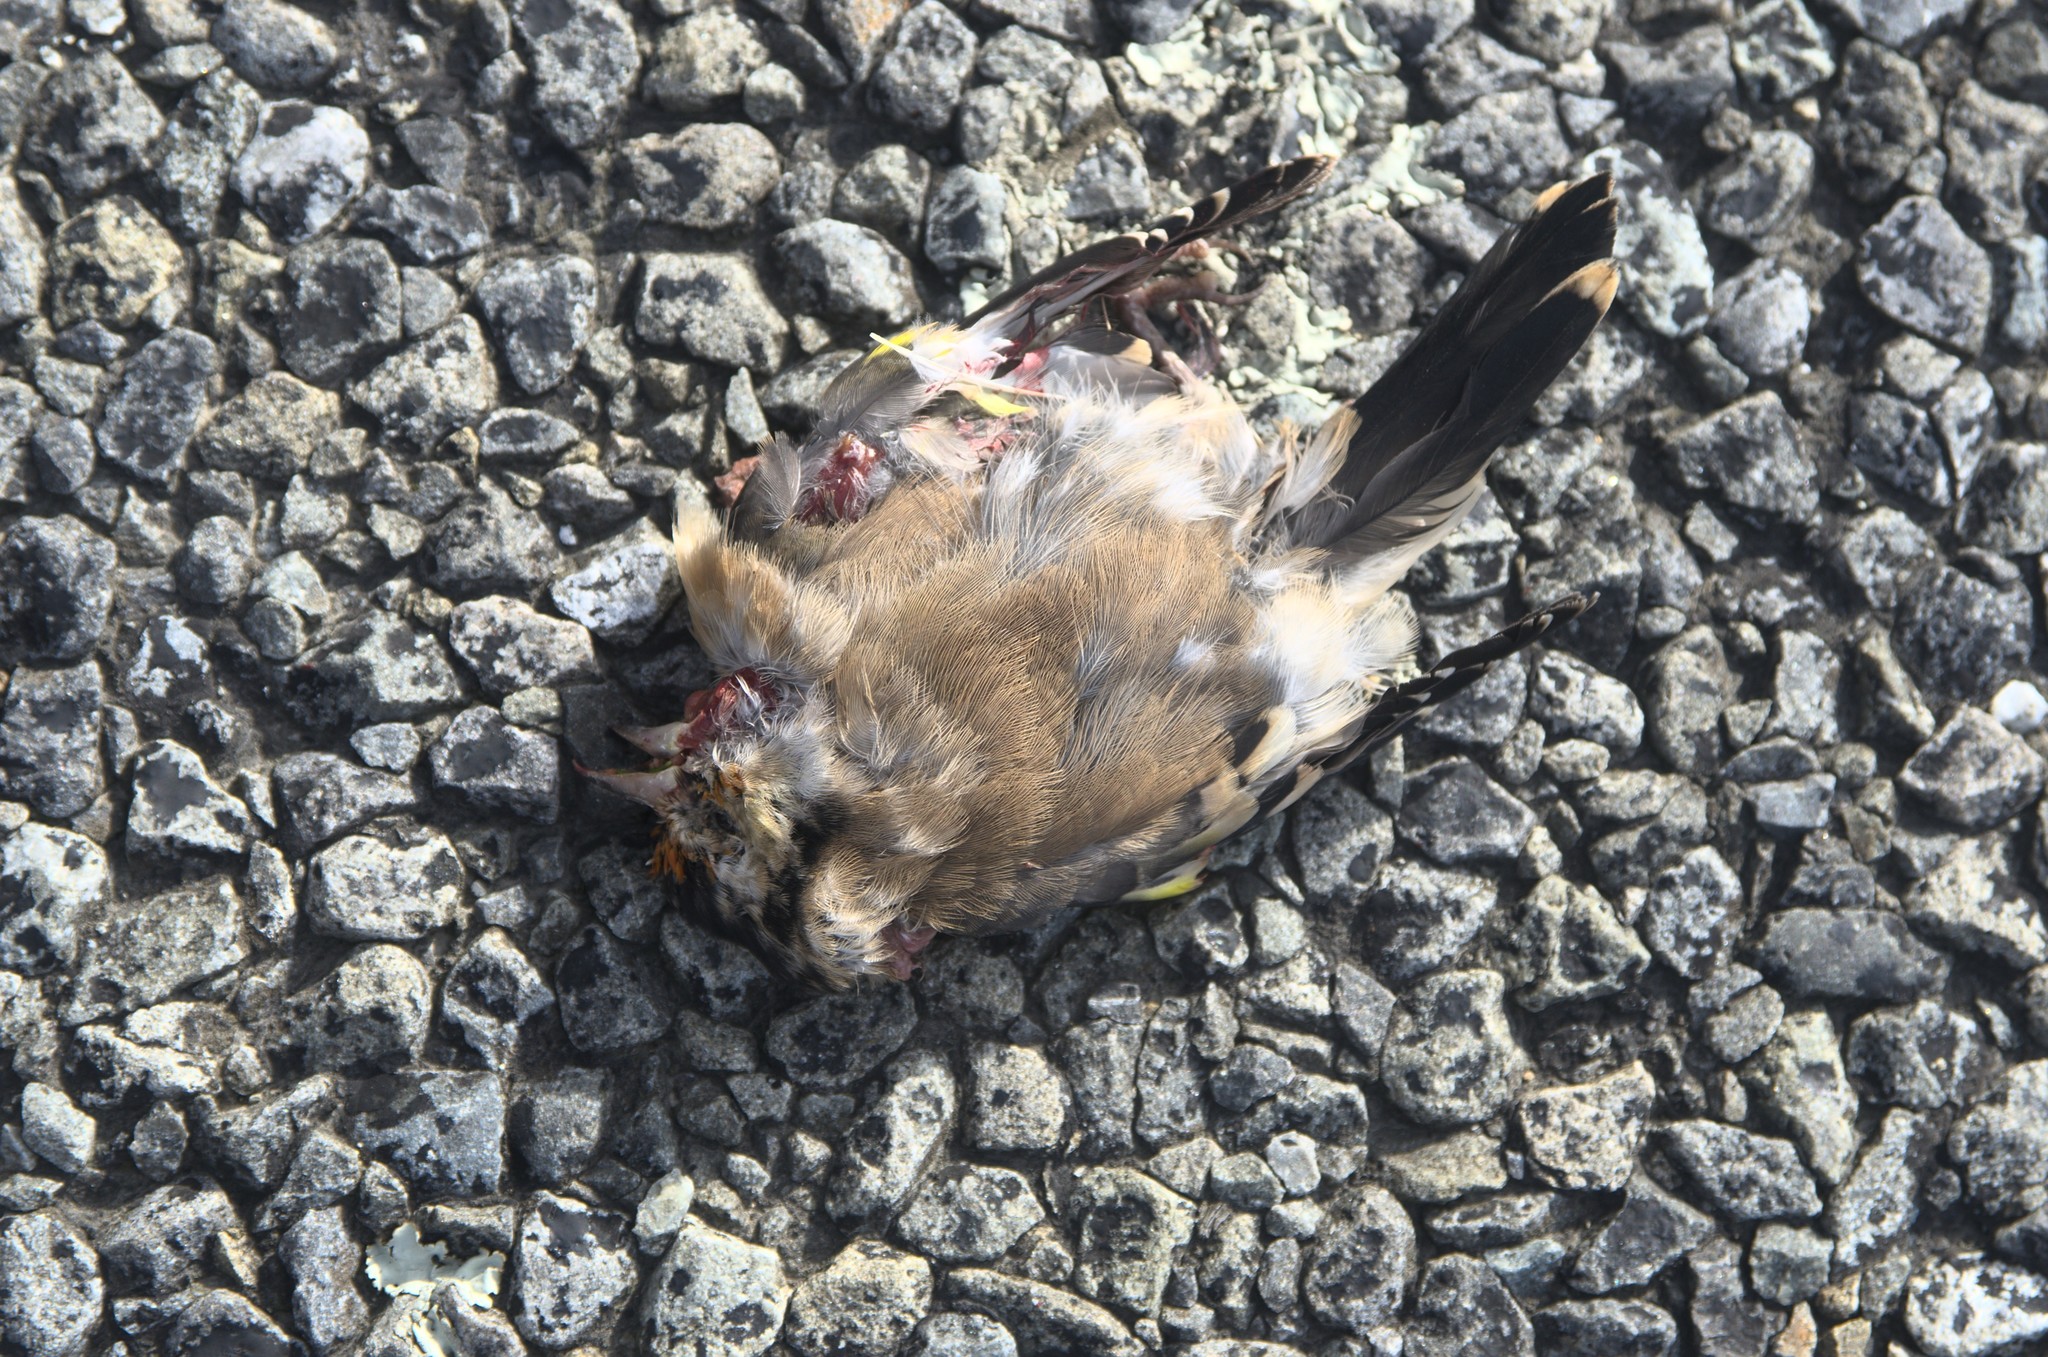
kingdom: Animalia
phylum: Chordata
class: Aves
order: Passeriformes
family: Fringillidae
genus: Carduelis
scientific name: Carduelis carduelis
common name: European goldfinch
